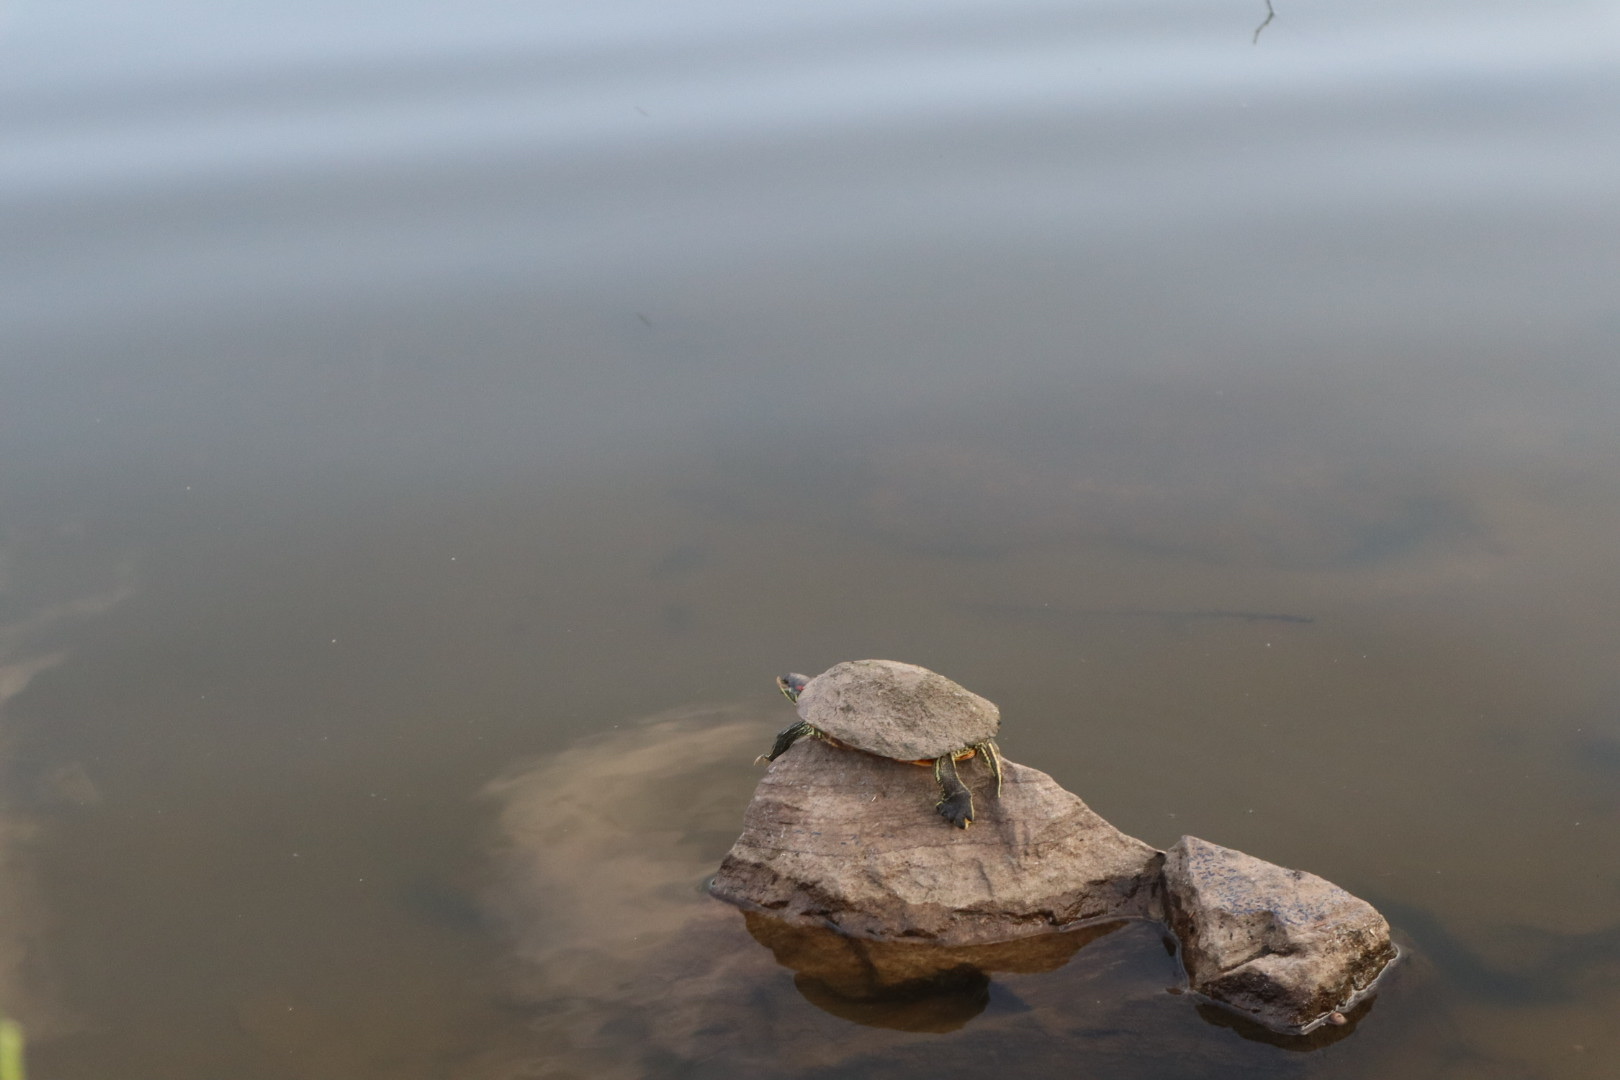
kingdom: Animalia
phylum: Chordata
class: Testudines
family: Emydidae
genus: Trachemys
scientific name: Trachemys scripta
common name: Slider
